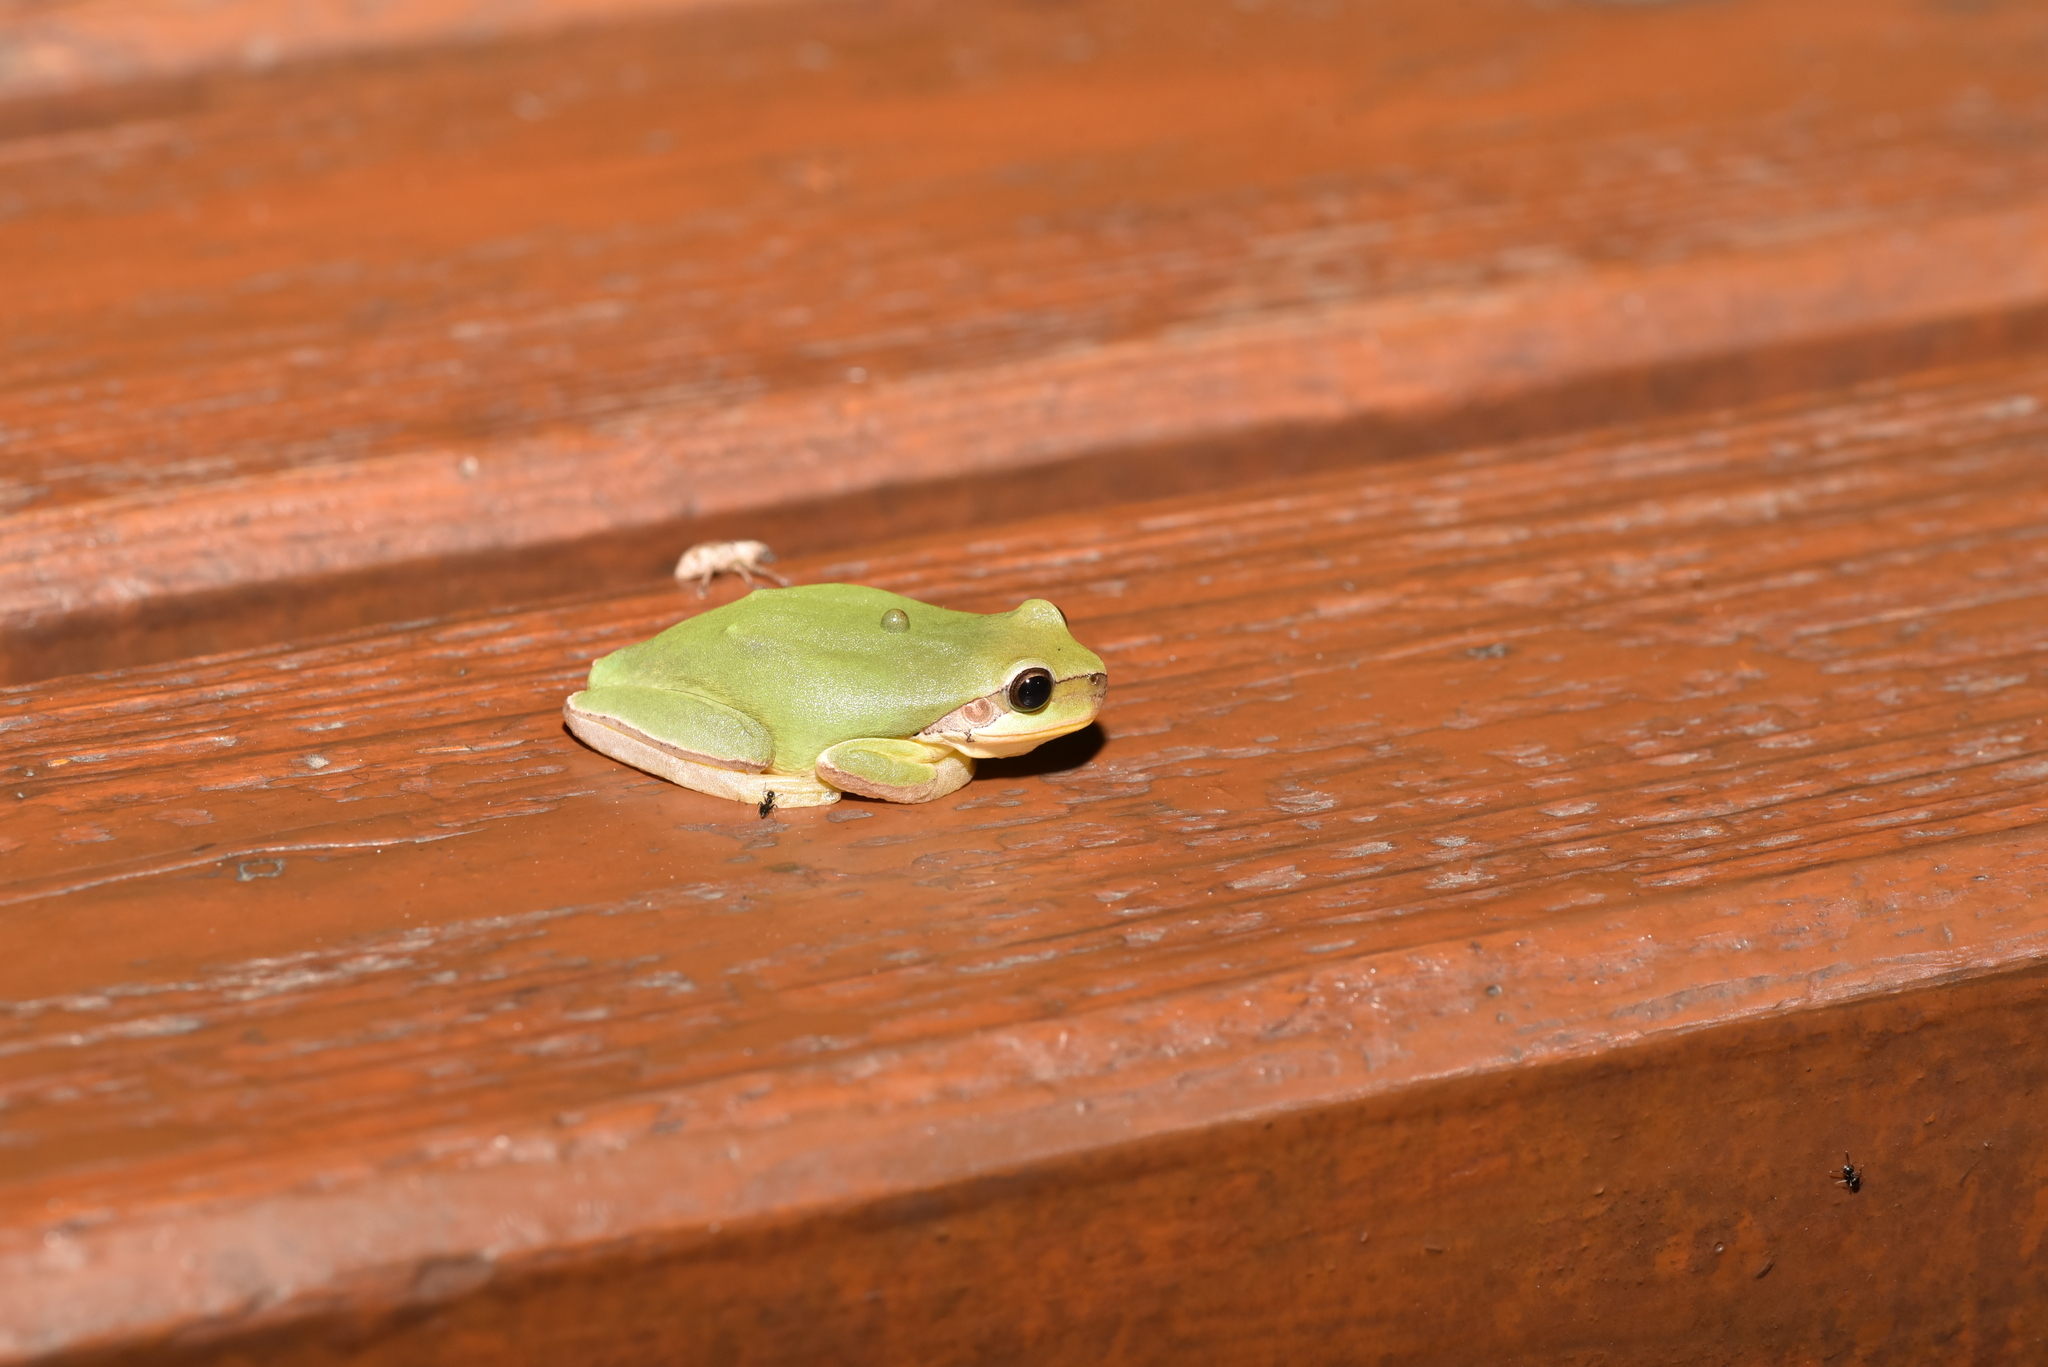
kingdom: Animalia
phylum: Chordata
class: Amphibia
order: Anura
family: Hylidae
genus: Hyla
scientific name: Hyla chinensis
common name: Common chinese treefrog
